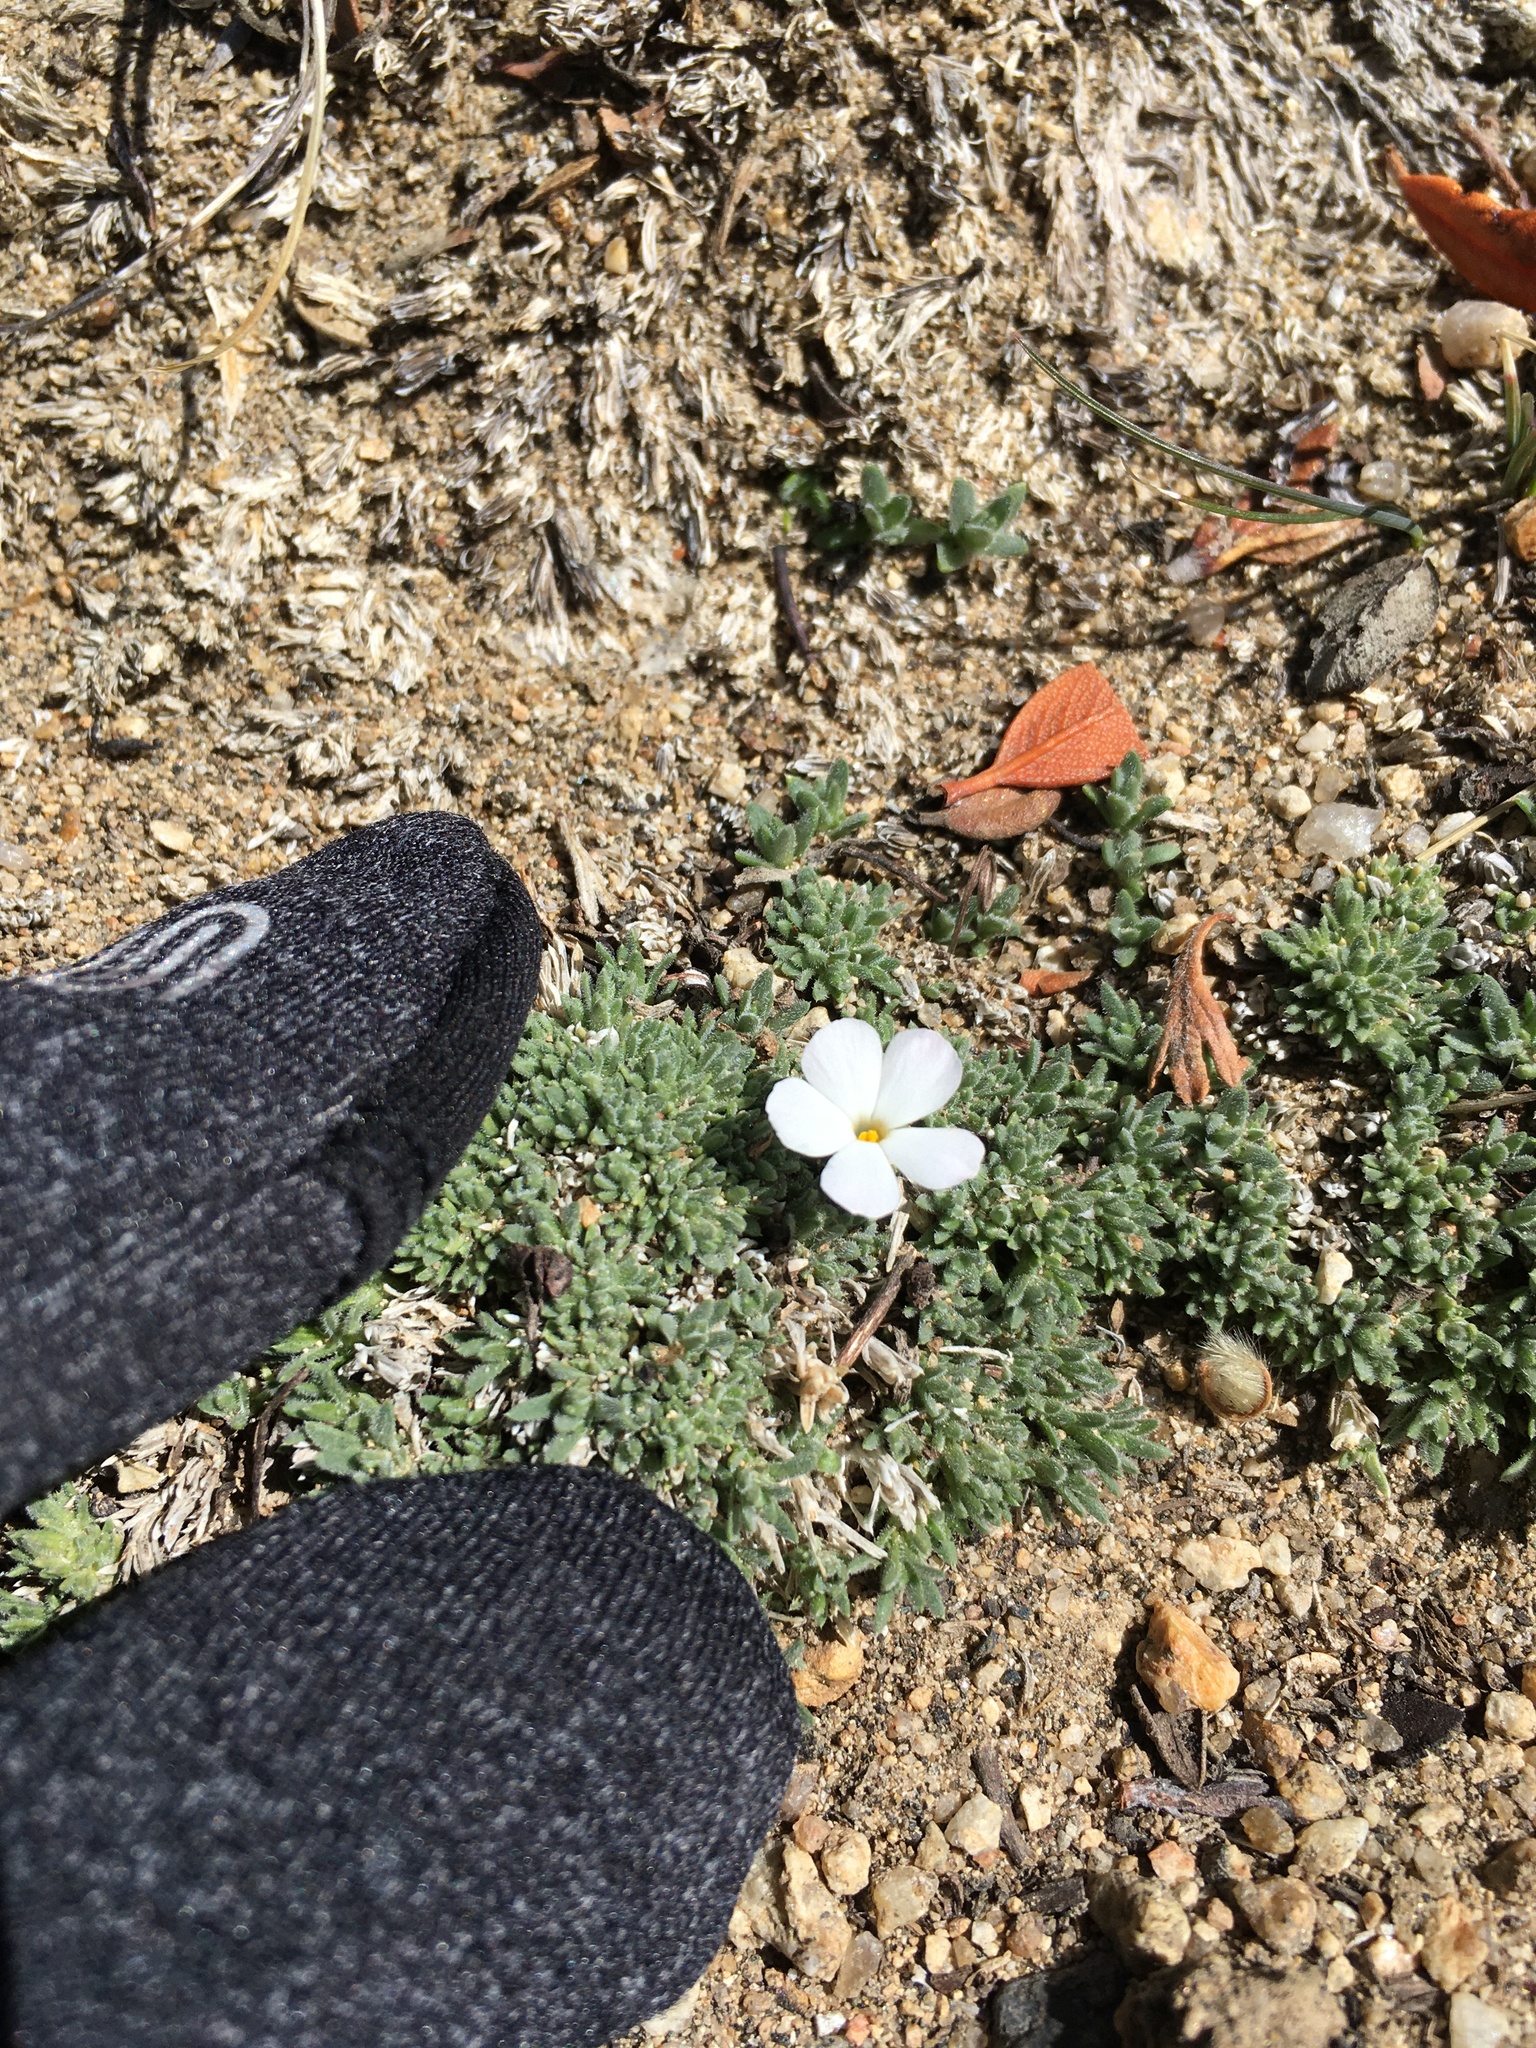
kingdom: Plantae
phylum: Tracheophyta
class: Magnoliopsida
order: Ericales
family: Polemoniaceae
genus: Phlox
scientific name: Phlox condensata
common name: Compact phlox
